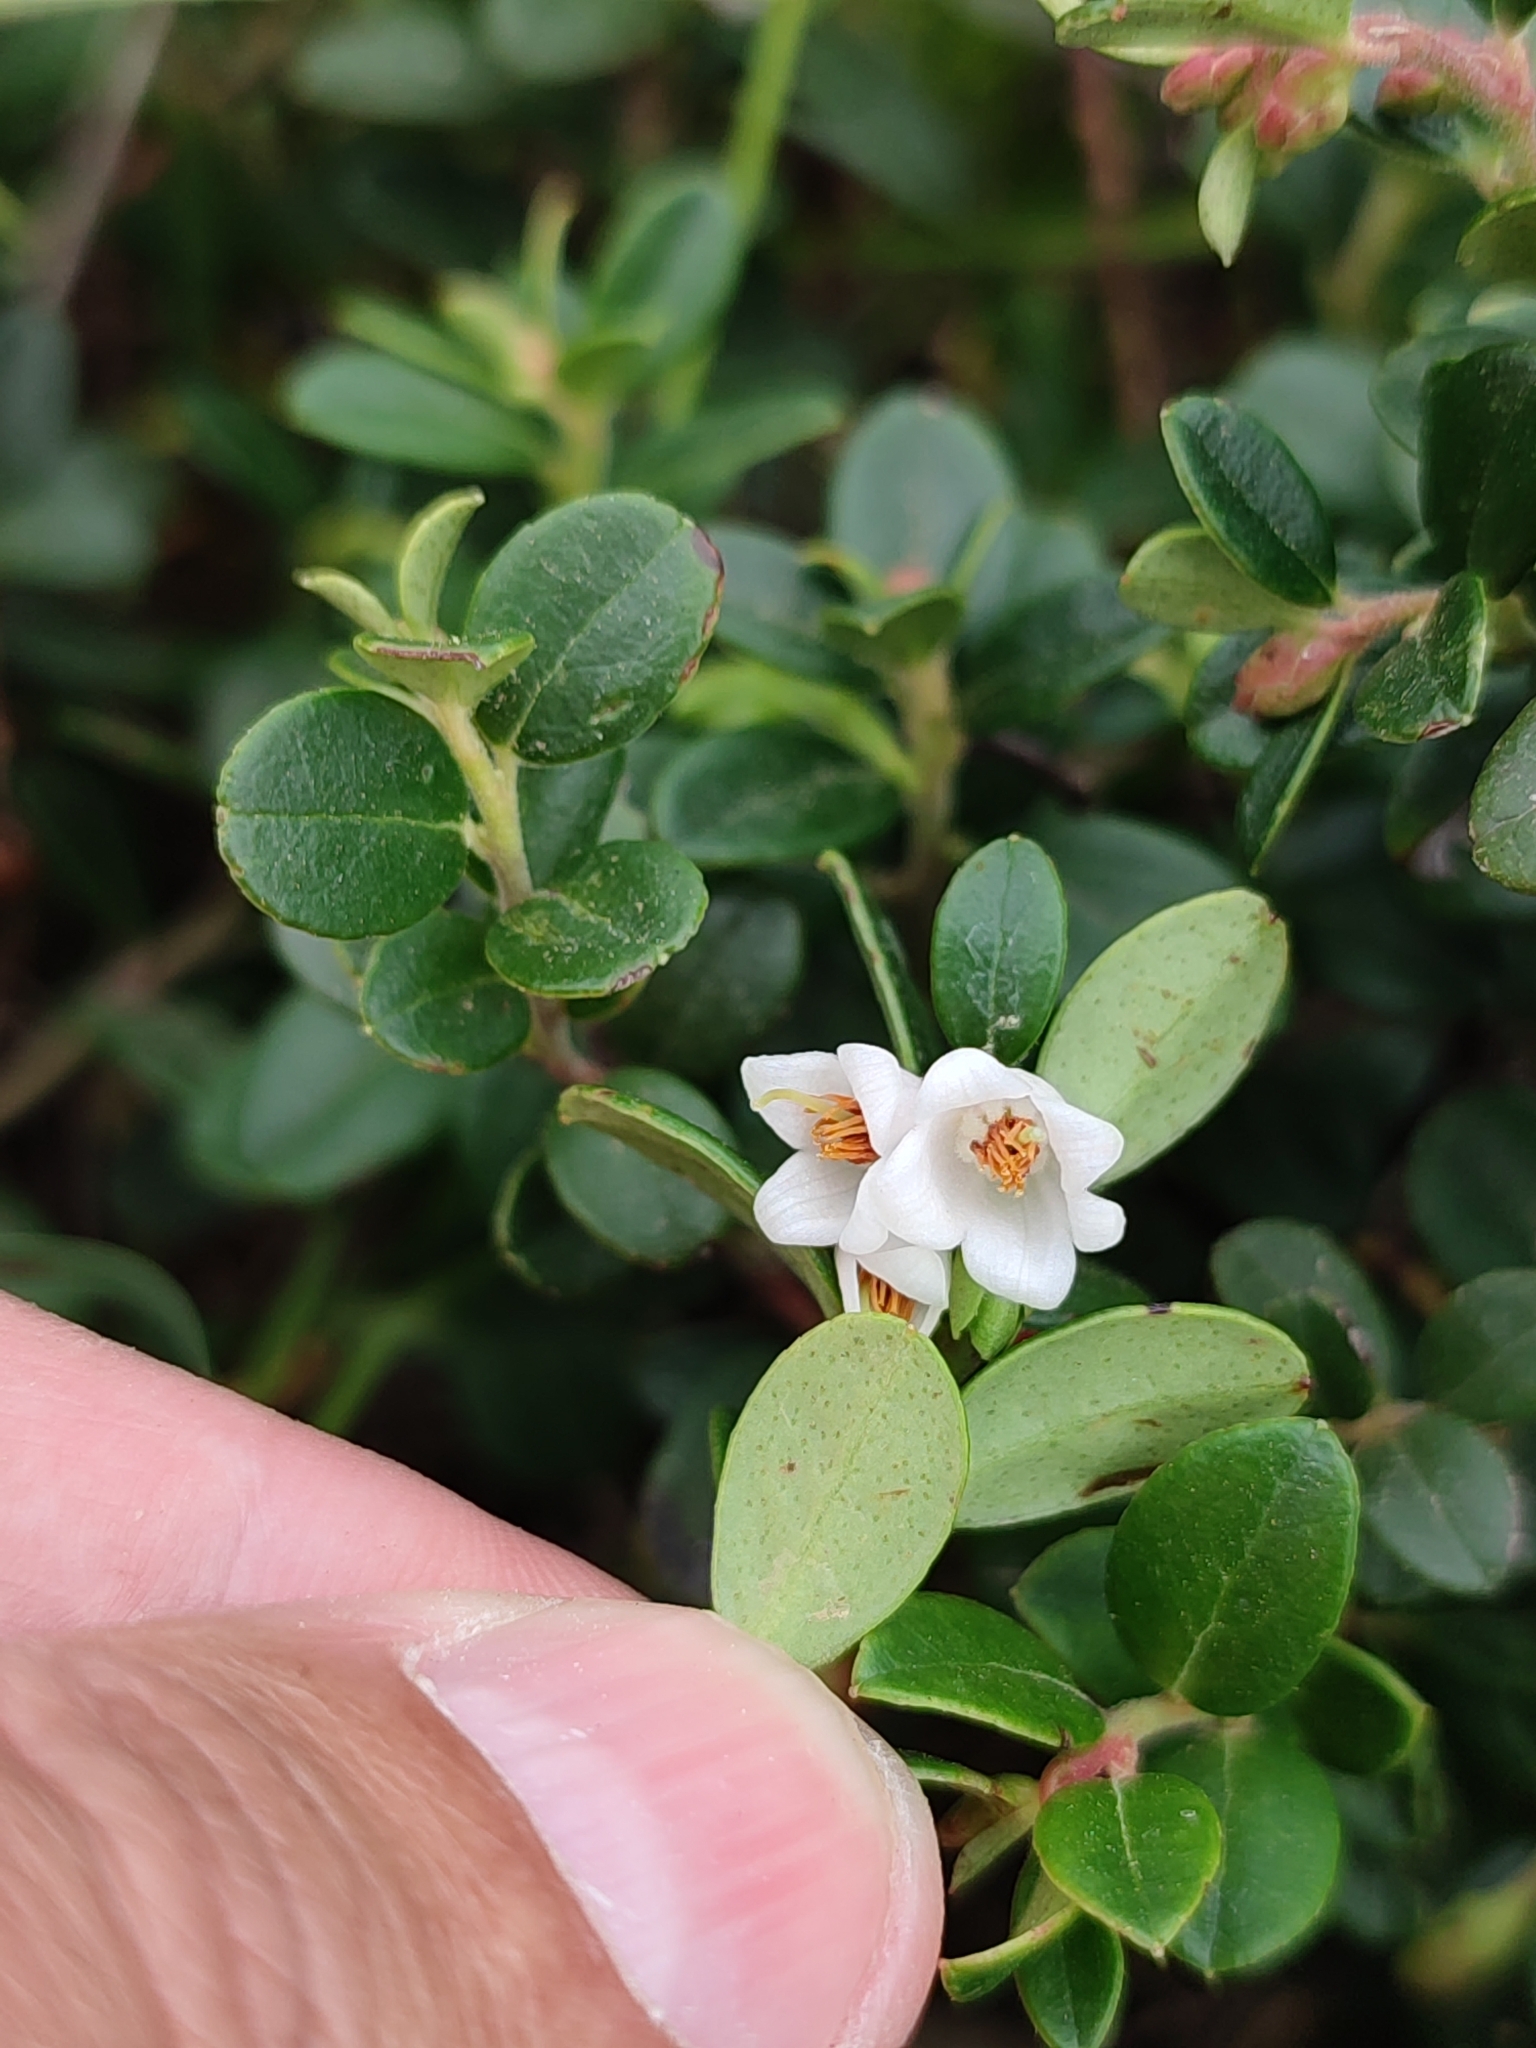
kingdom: Plantae
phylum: Tracheophyta
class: Magnoliopsida
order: Ericales
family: Ericaceae
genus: Vaccinium
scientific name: Vaccinium vitis-idaea
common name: Cowberry
